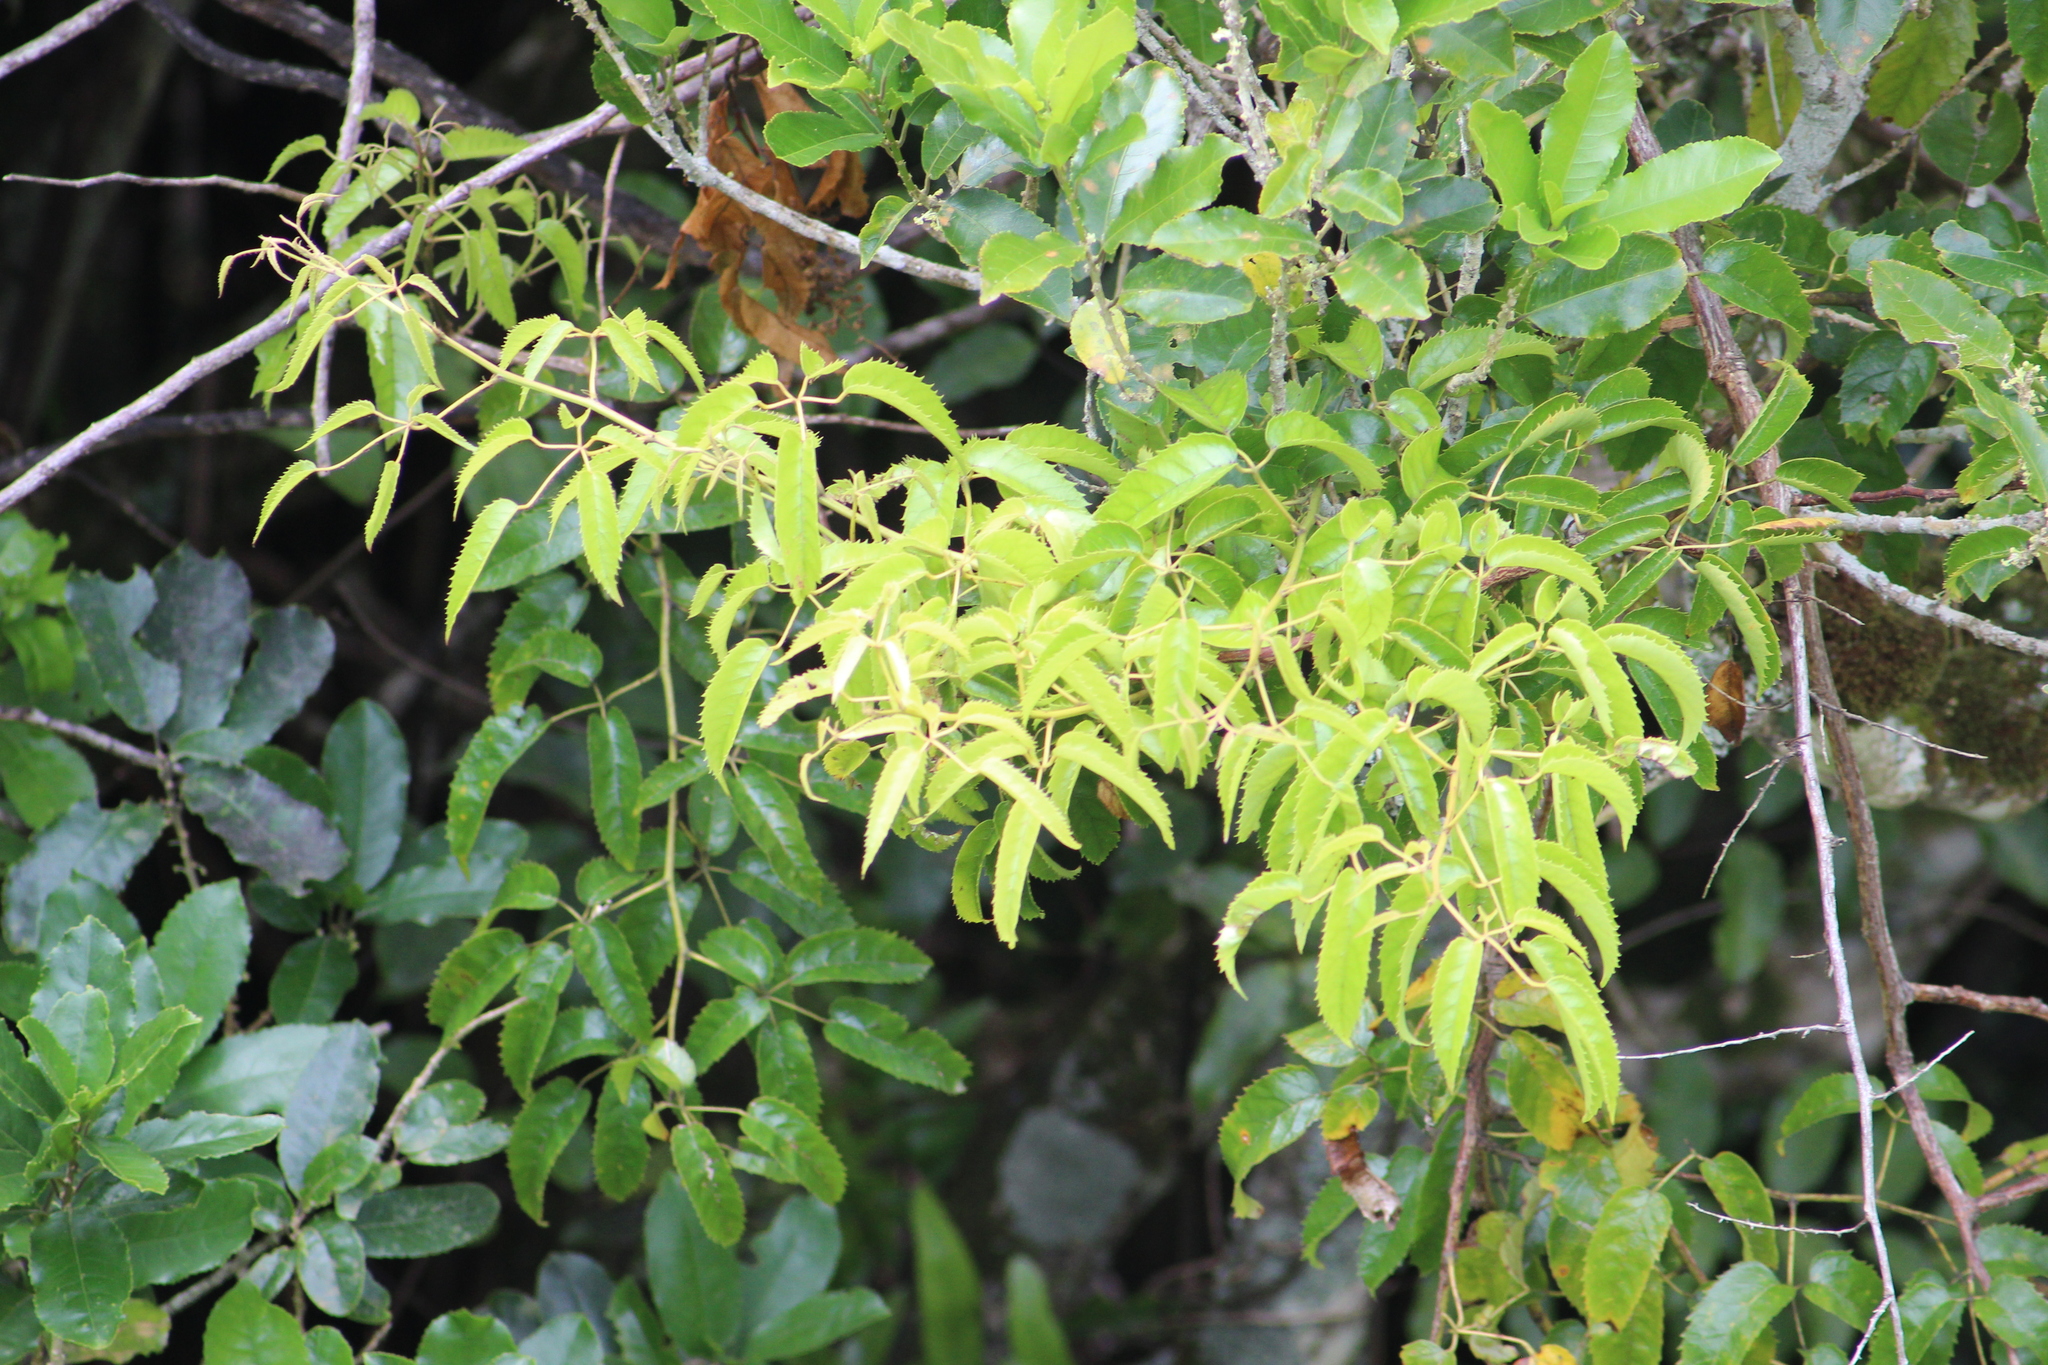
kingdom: Plantae
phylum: Tracheophyta
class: Magnoliopsida
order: Rosales
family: Rosaceae
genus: Rubus
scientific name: Rubus cissoides
